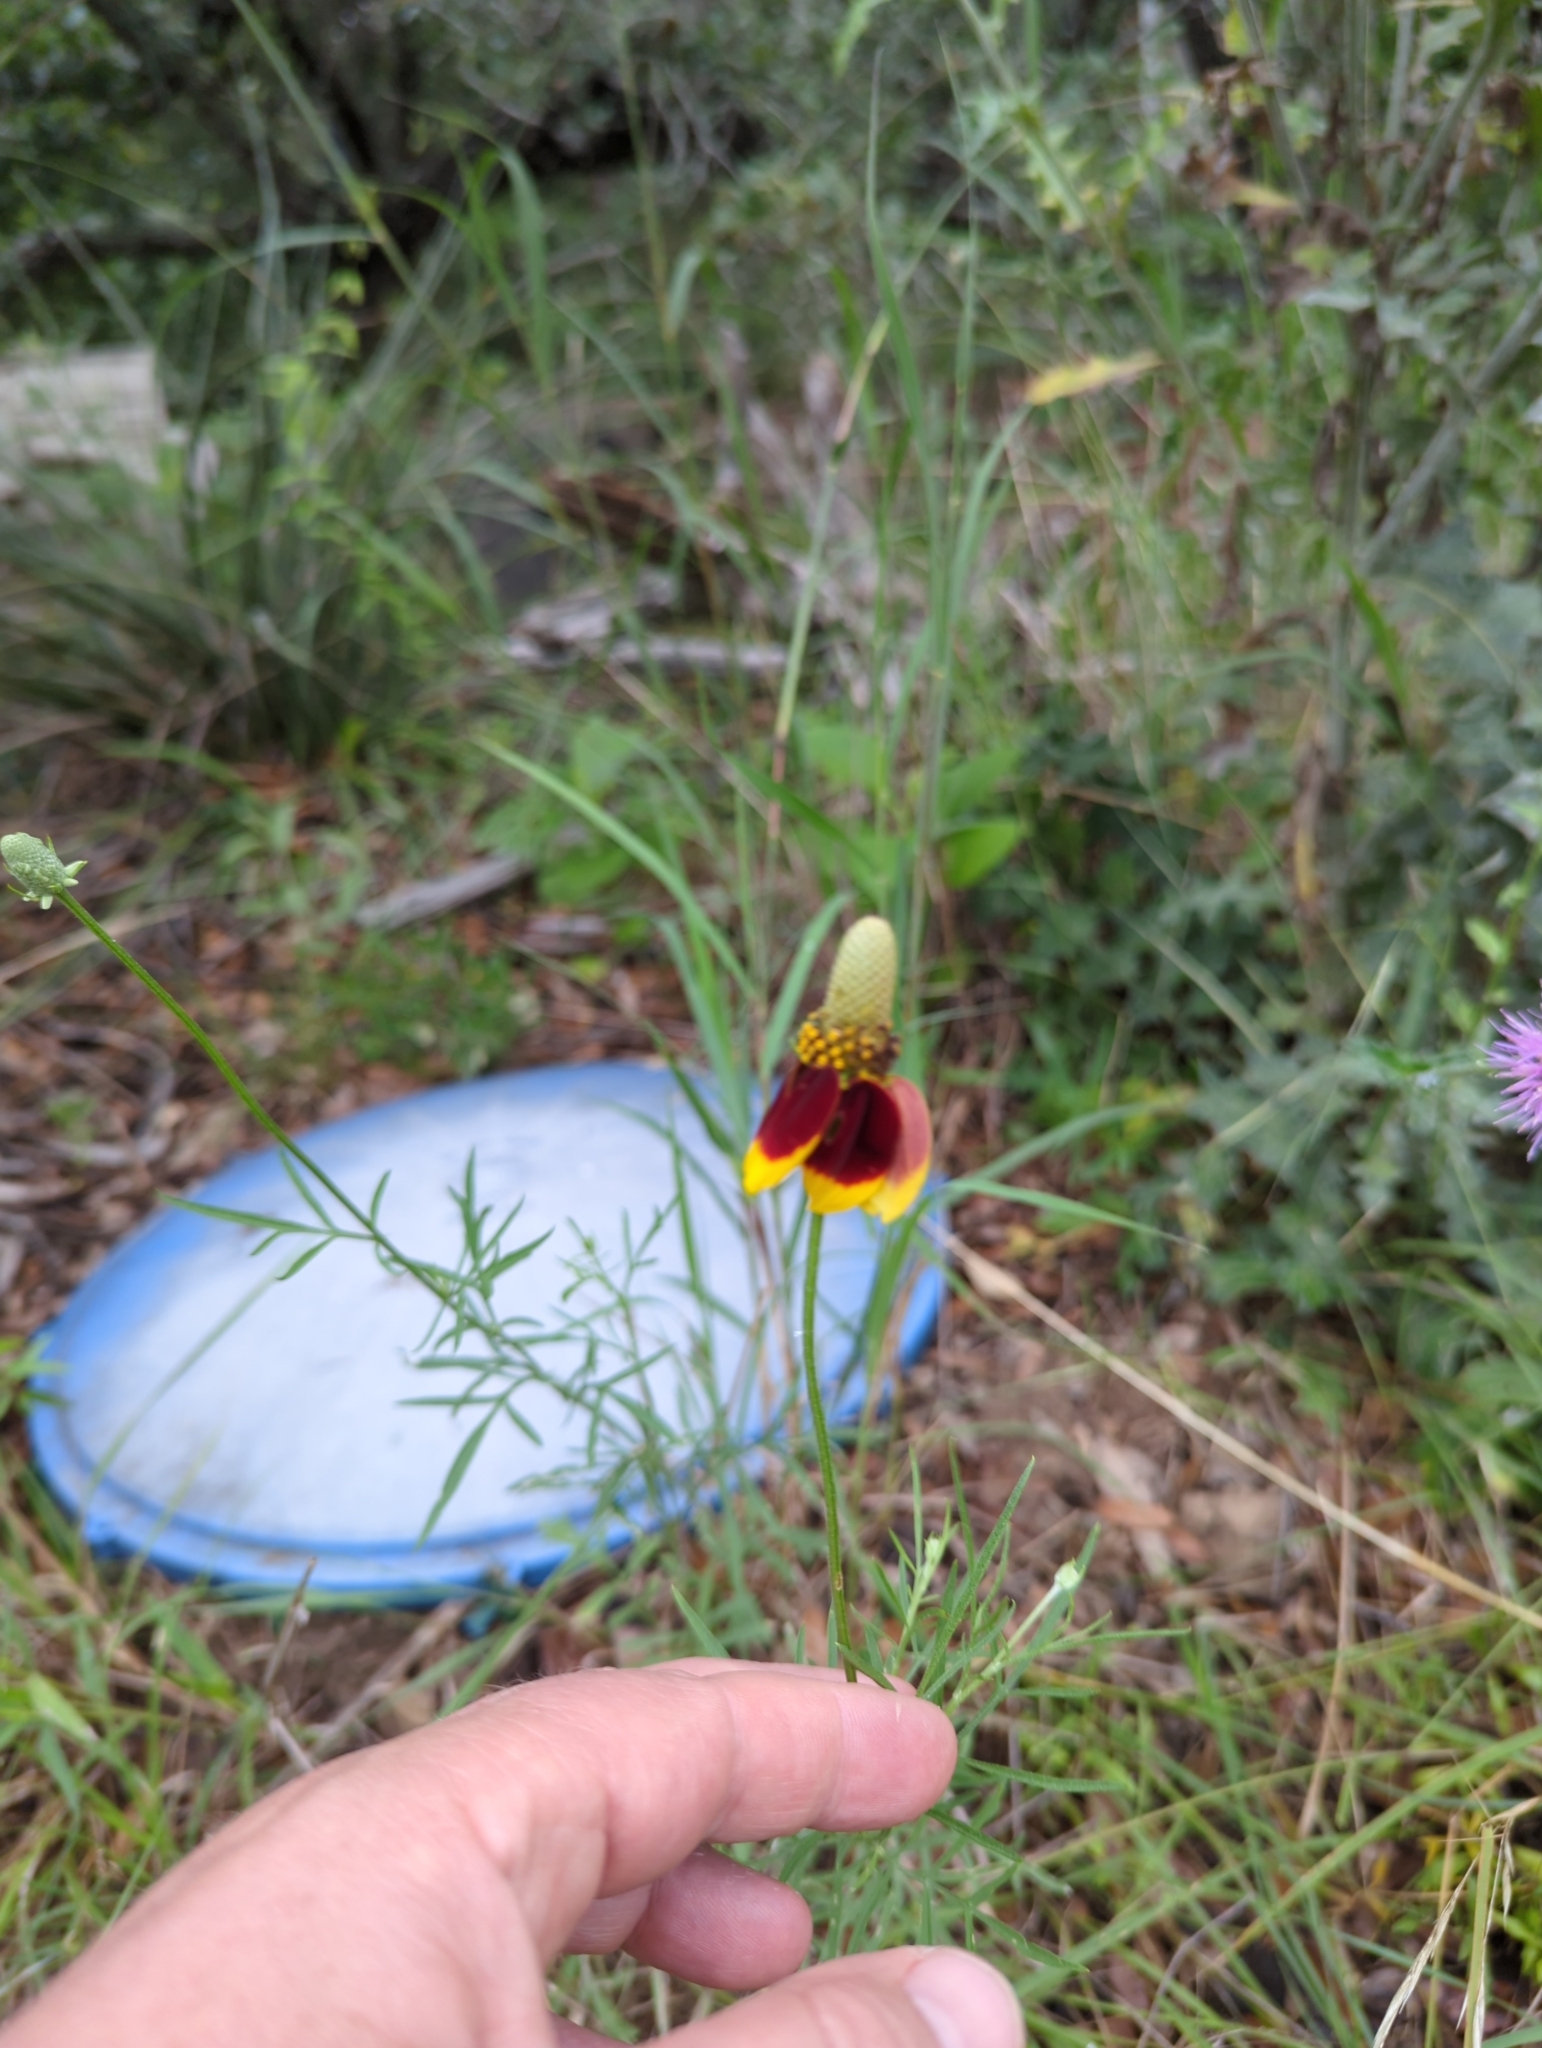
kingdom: Plantae
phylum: Tracheophyta
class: Magnoliopsida
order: Asterales
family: Asteraceae
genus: Ratibida
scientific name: Ratibida columnifera
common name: Prairie coneflower
